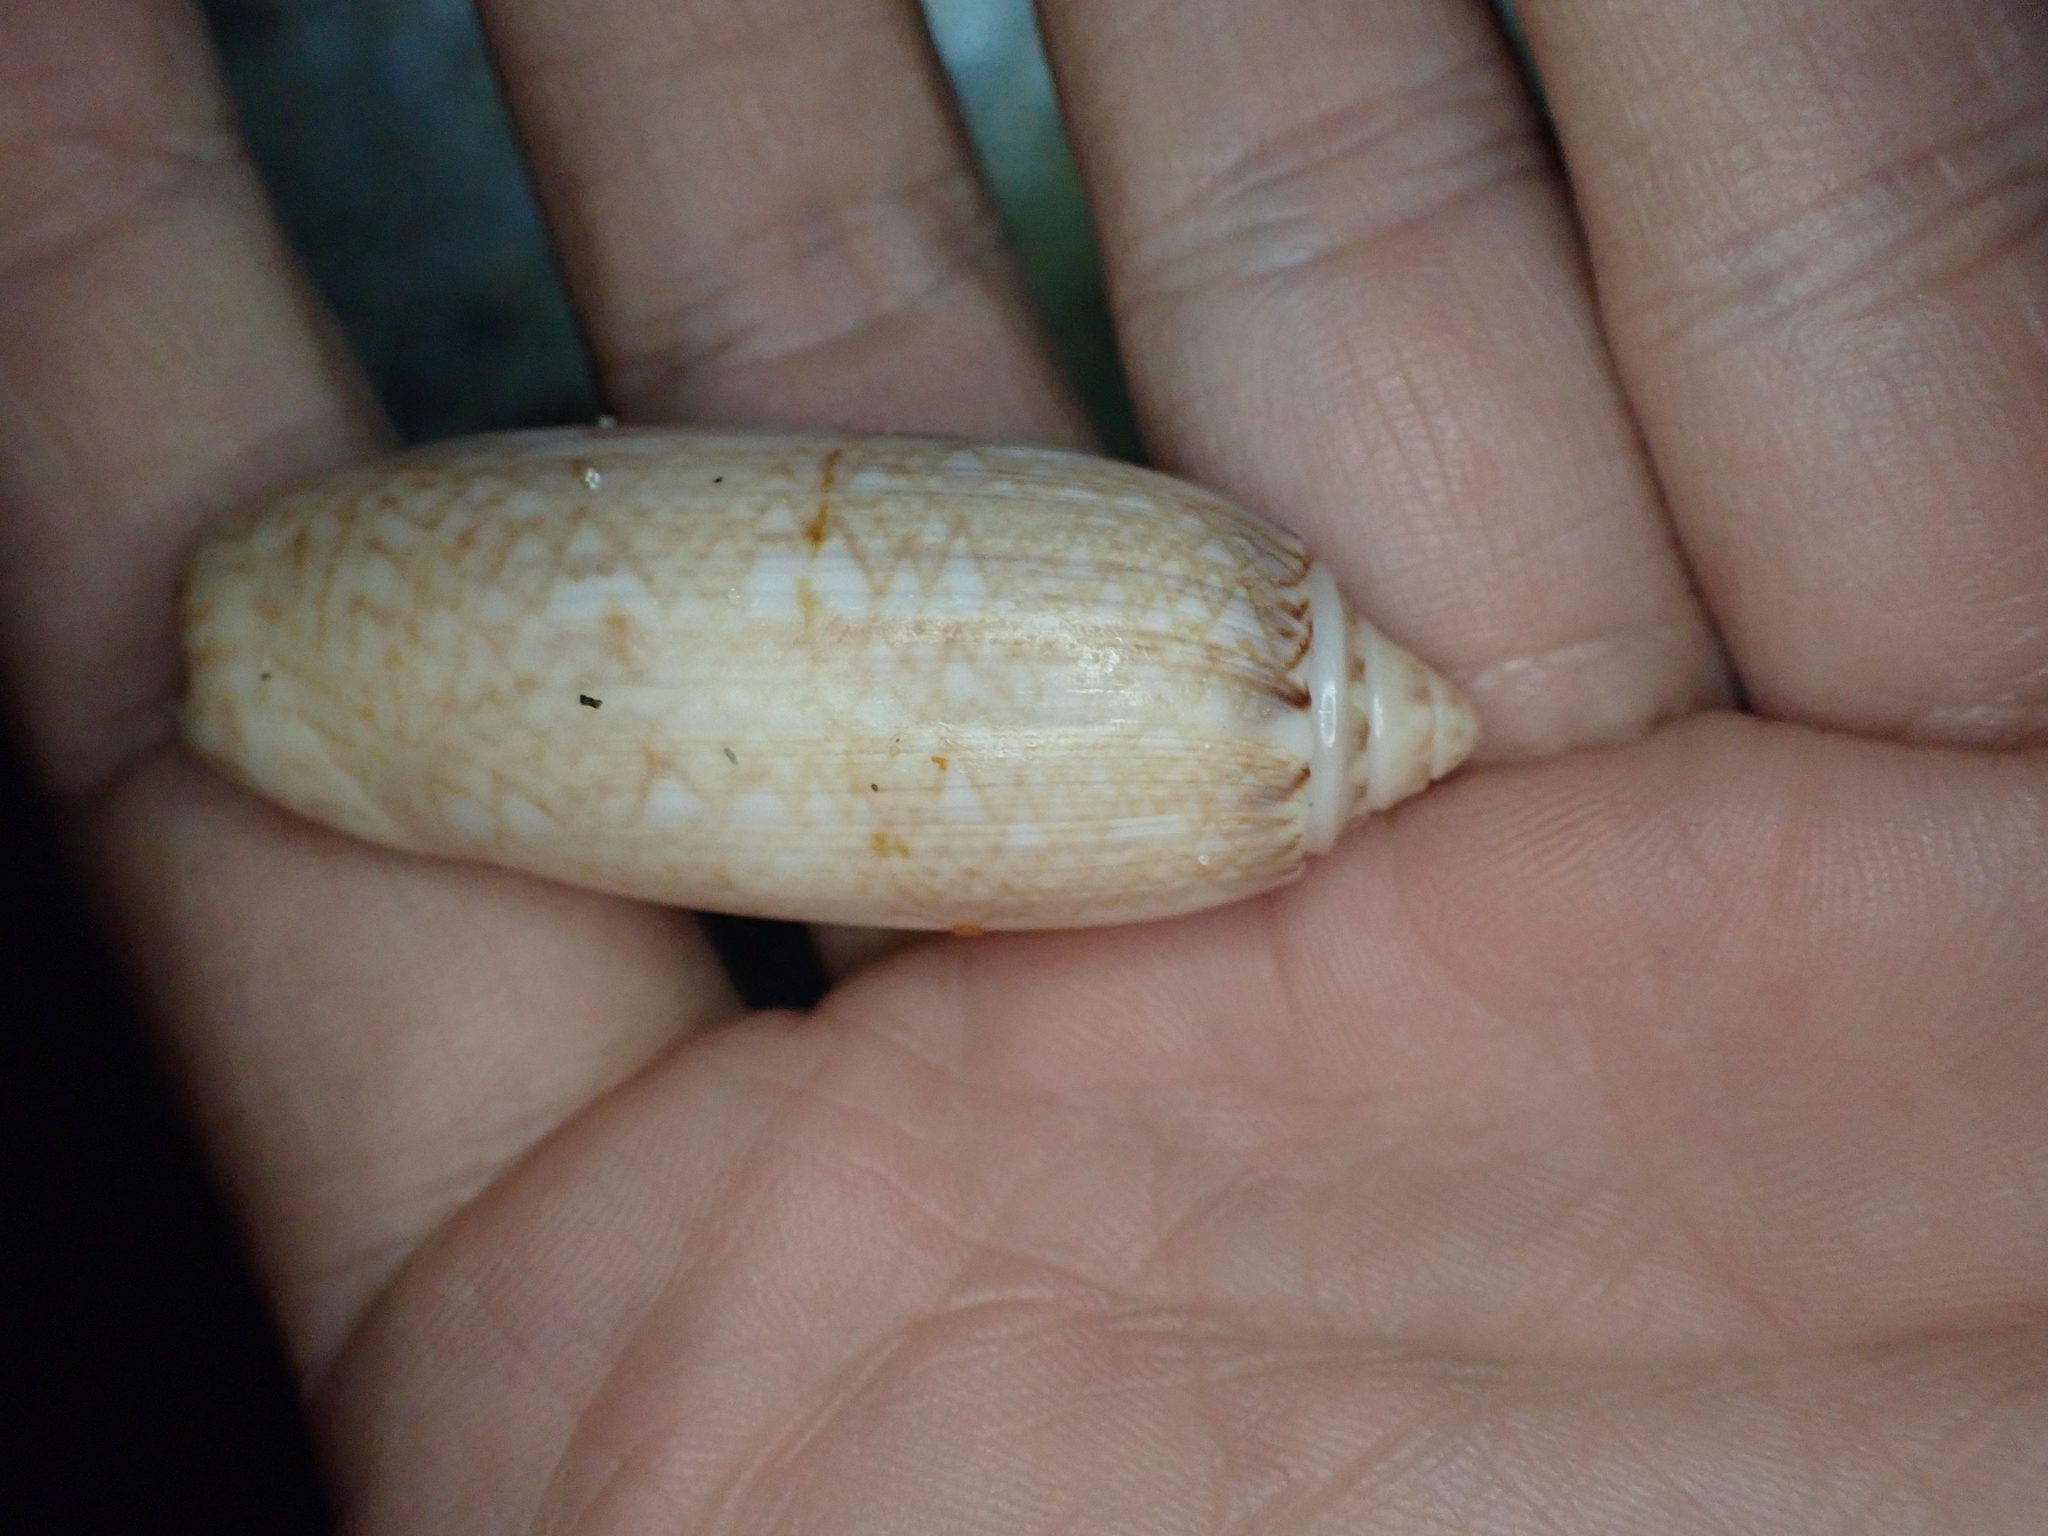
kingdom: Animalia
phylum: Mollusca
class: Gastropoda
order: Neogastropoda
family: Olividae
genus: Oliva
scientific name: Oliva sayana
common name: Lettered olive
